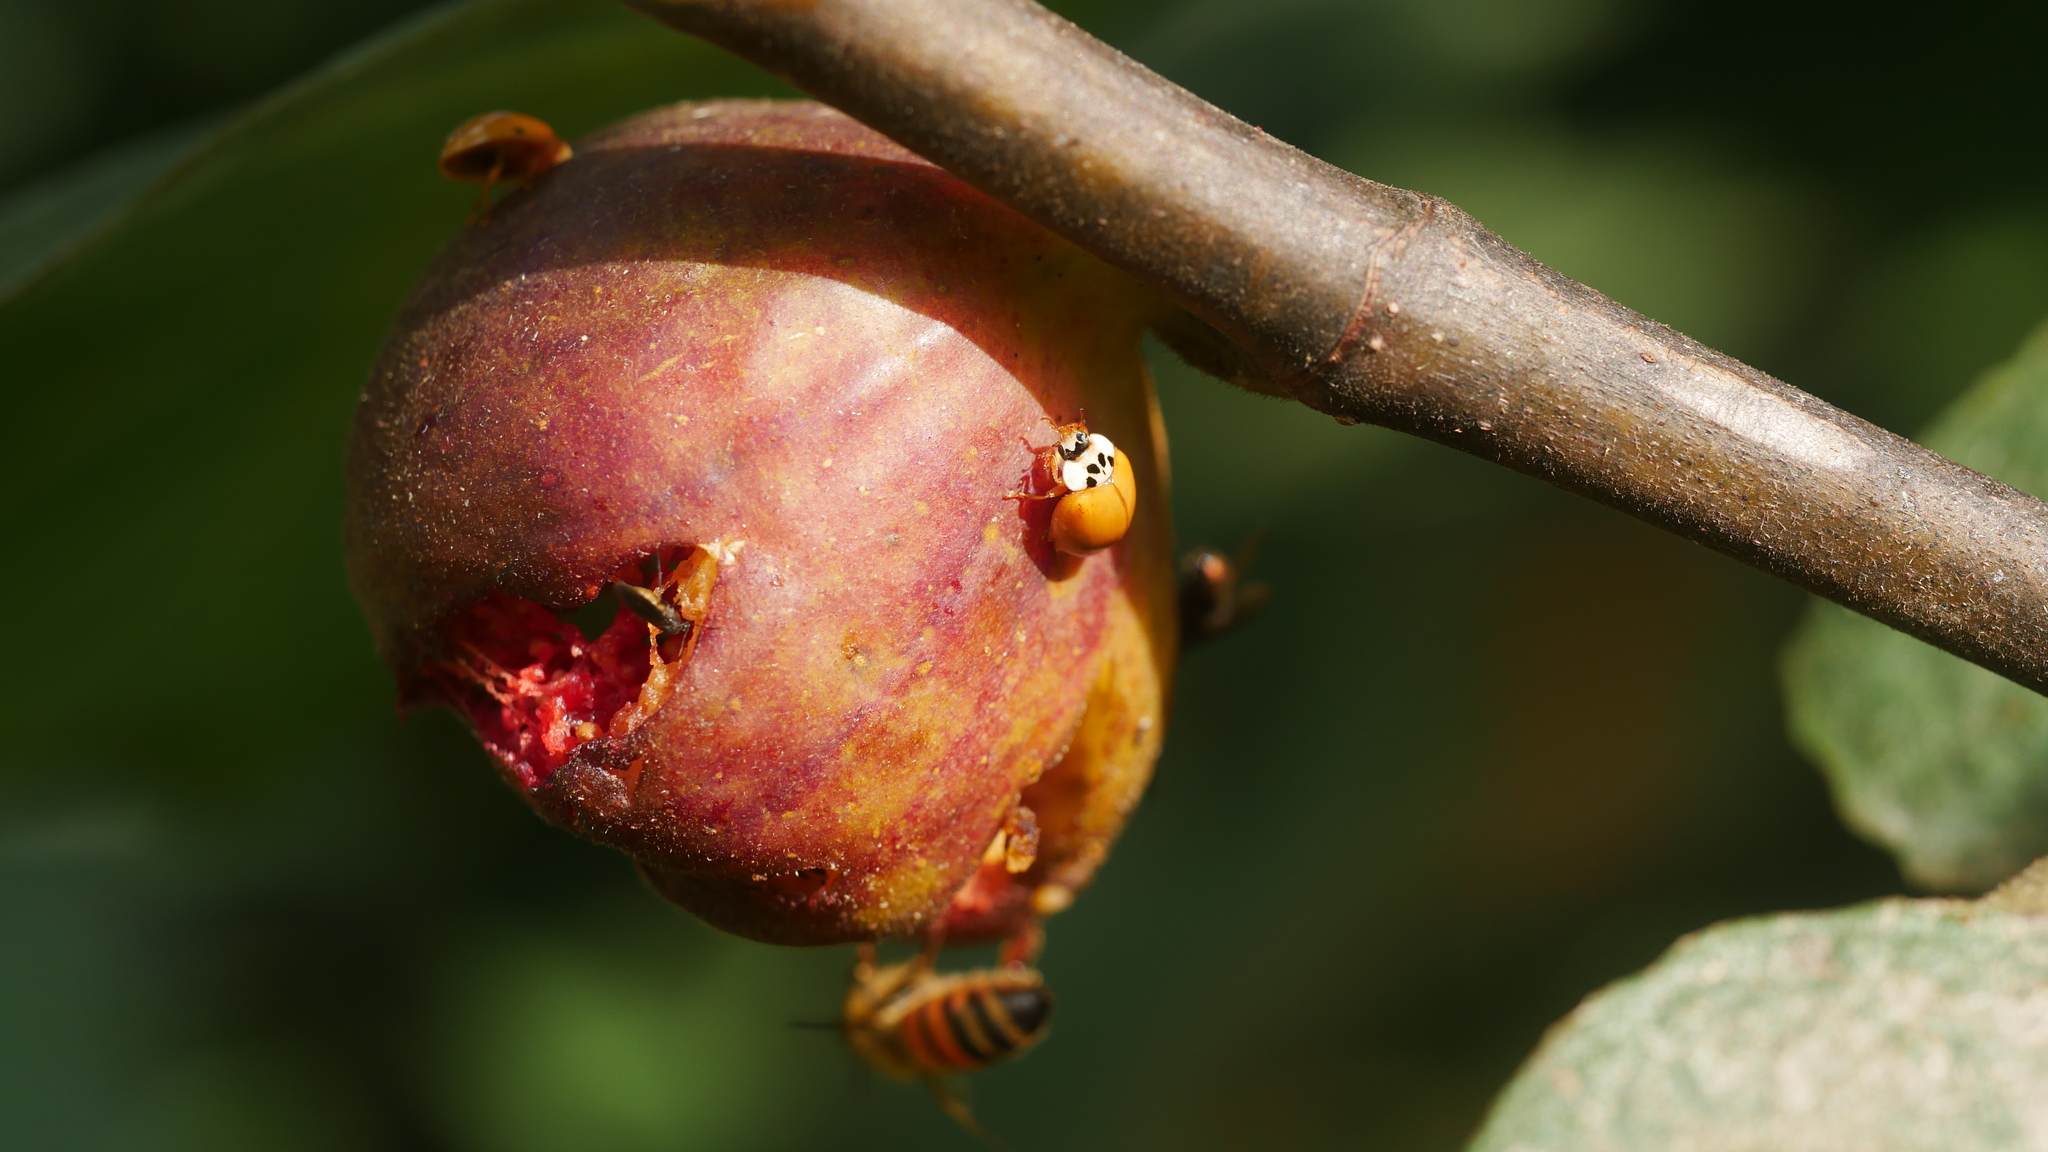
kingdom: Animalia
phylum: Arthropoda
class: Insecta
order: Coleoptera
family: Coccinellidae
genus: Harmonia
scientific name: Harmonia axyridis
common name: Harlequin ladybird
